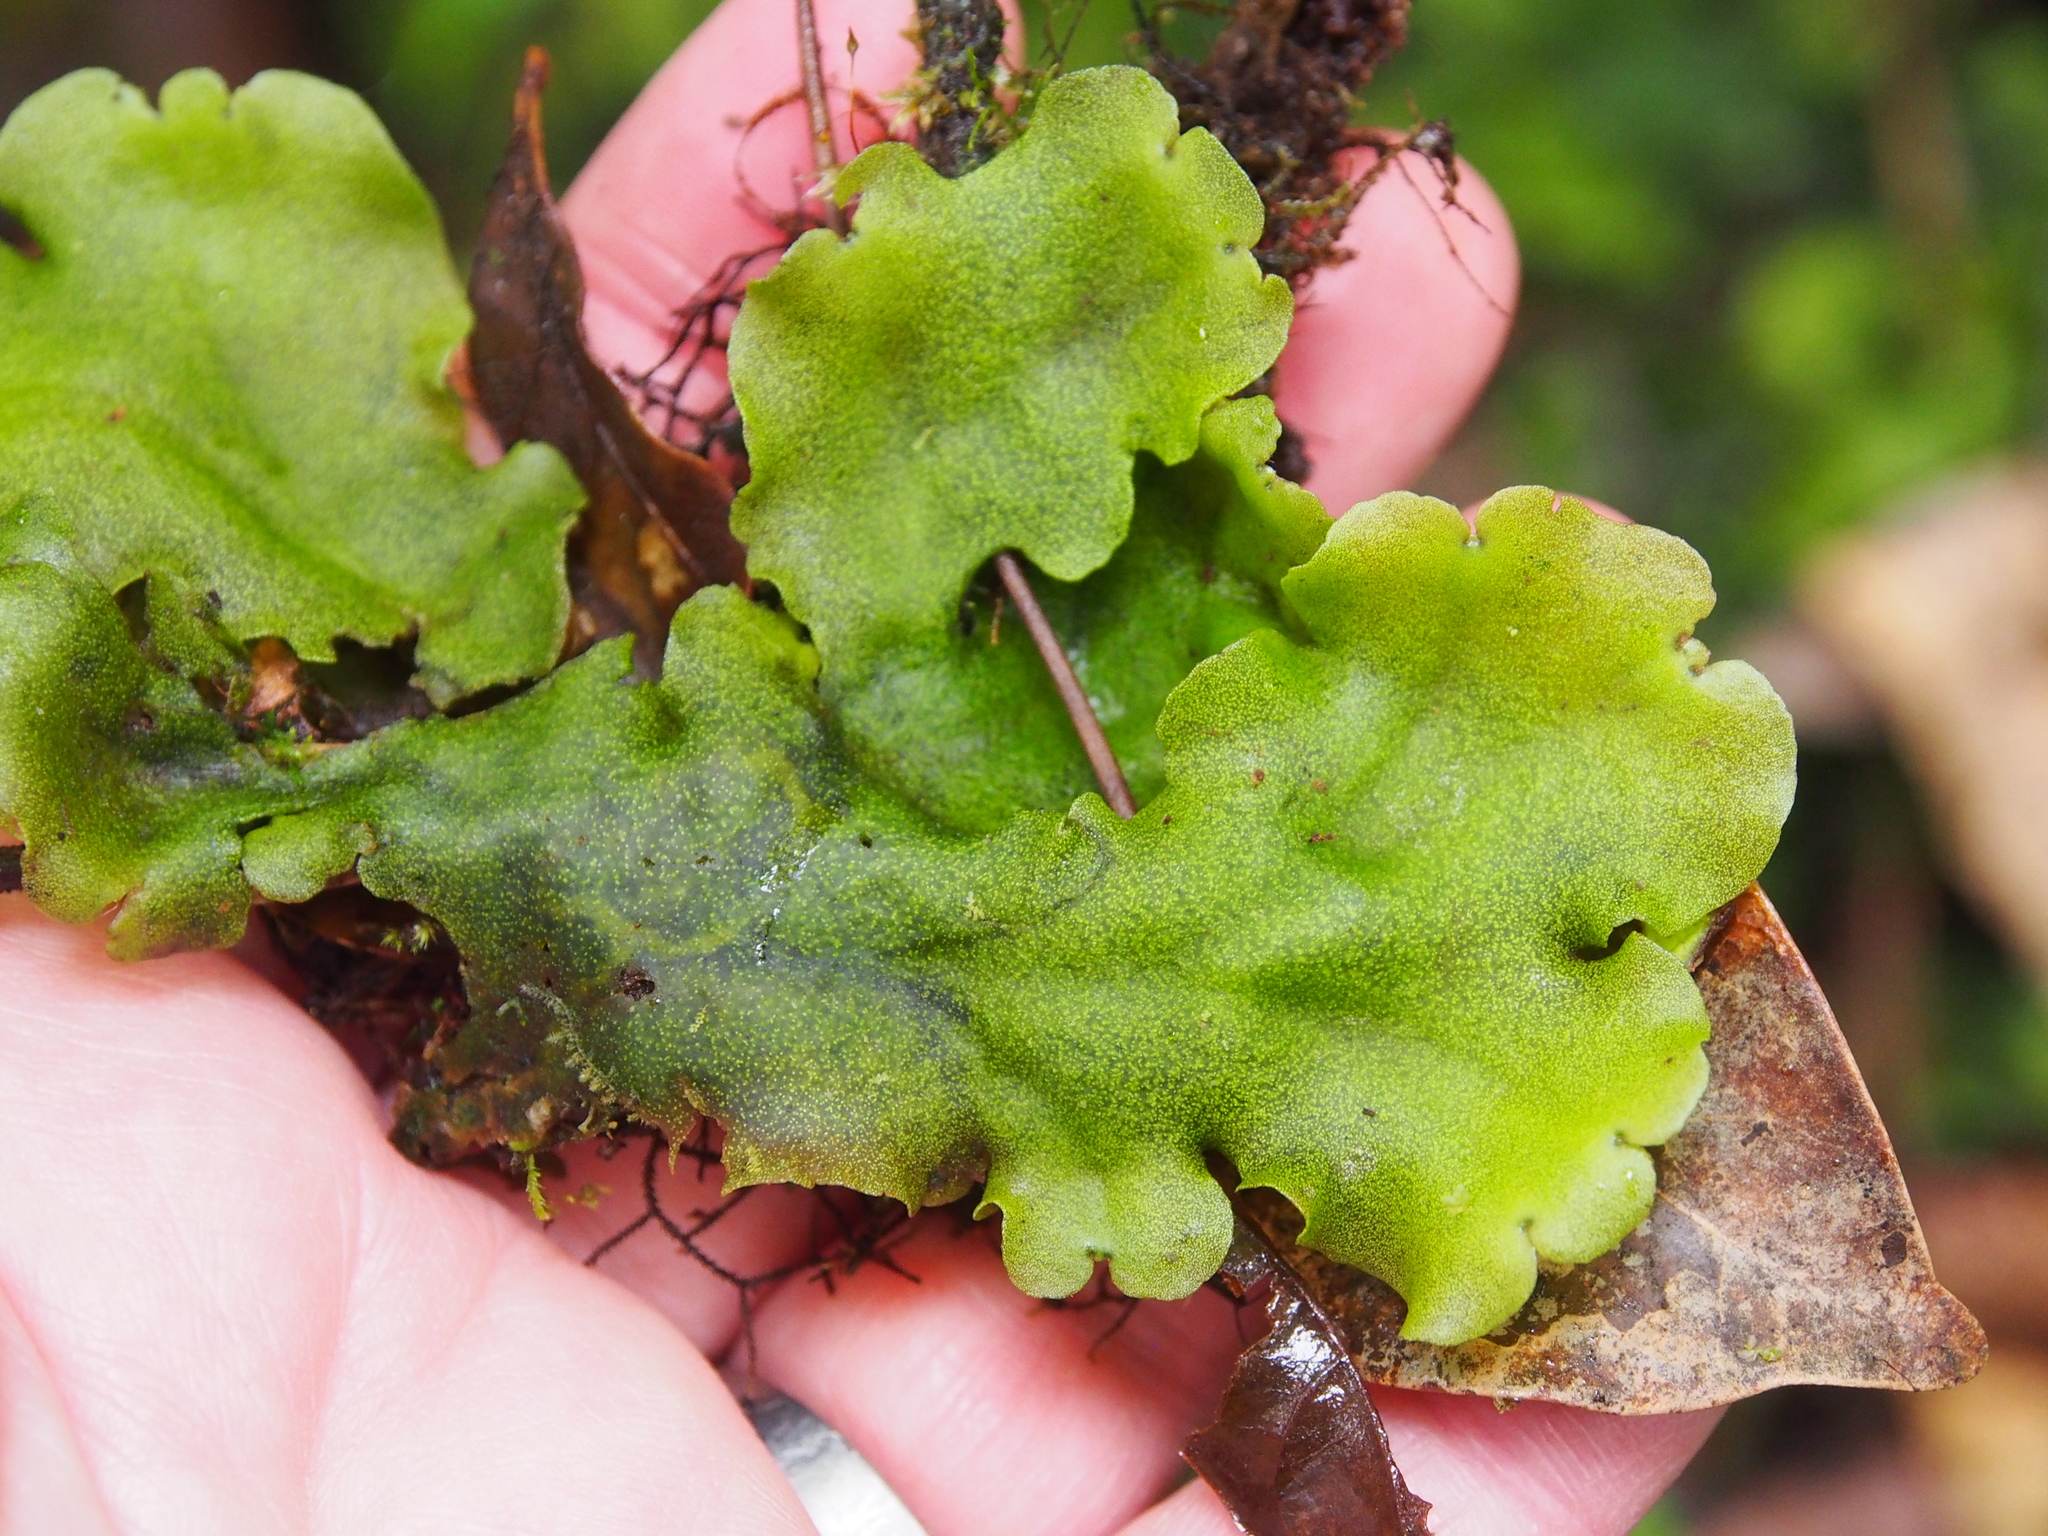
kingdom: Plantae
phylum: Marchantiophyta
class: Marchantiopsida
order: Marchantiales
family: Monocleaceae
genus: Monoclea
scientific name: Monoclea gottschei
